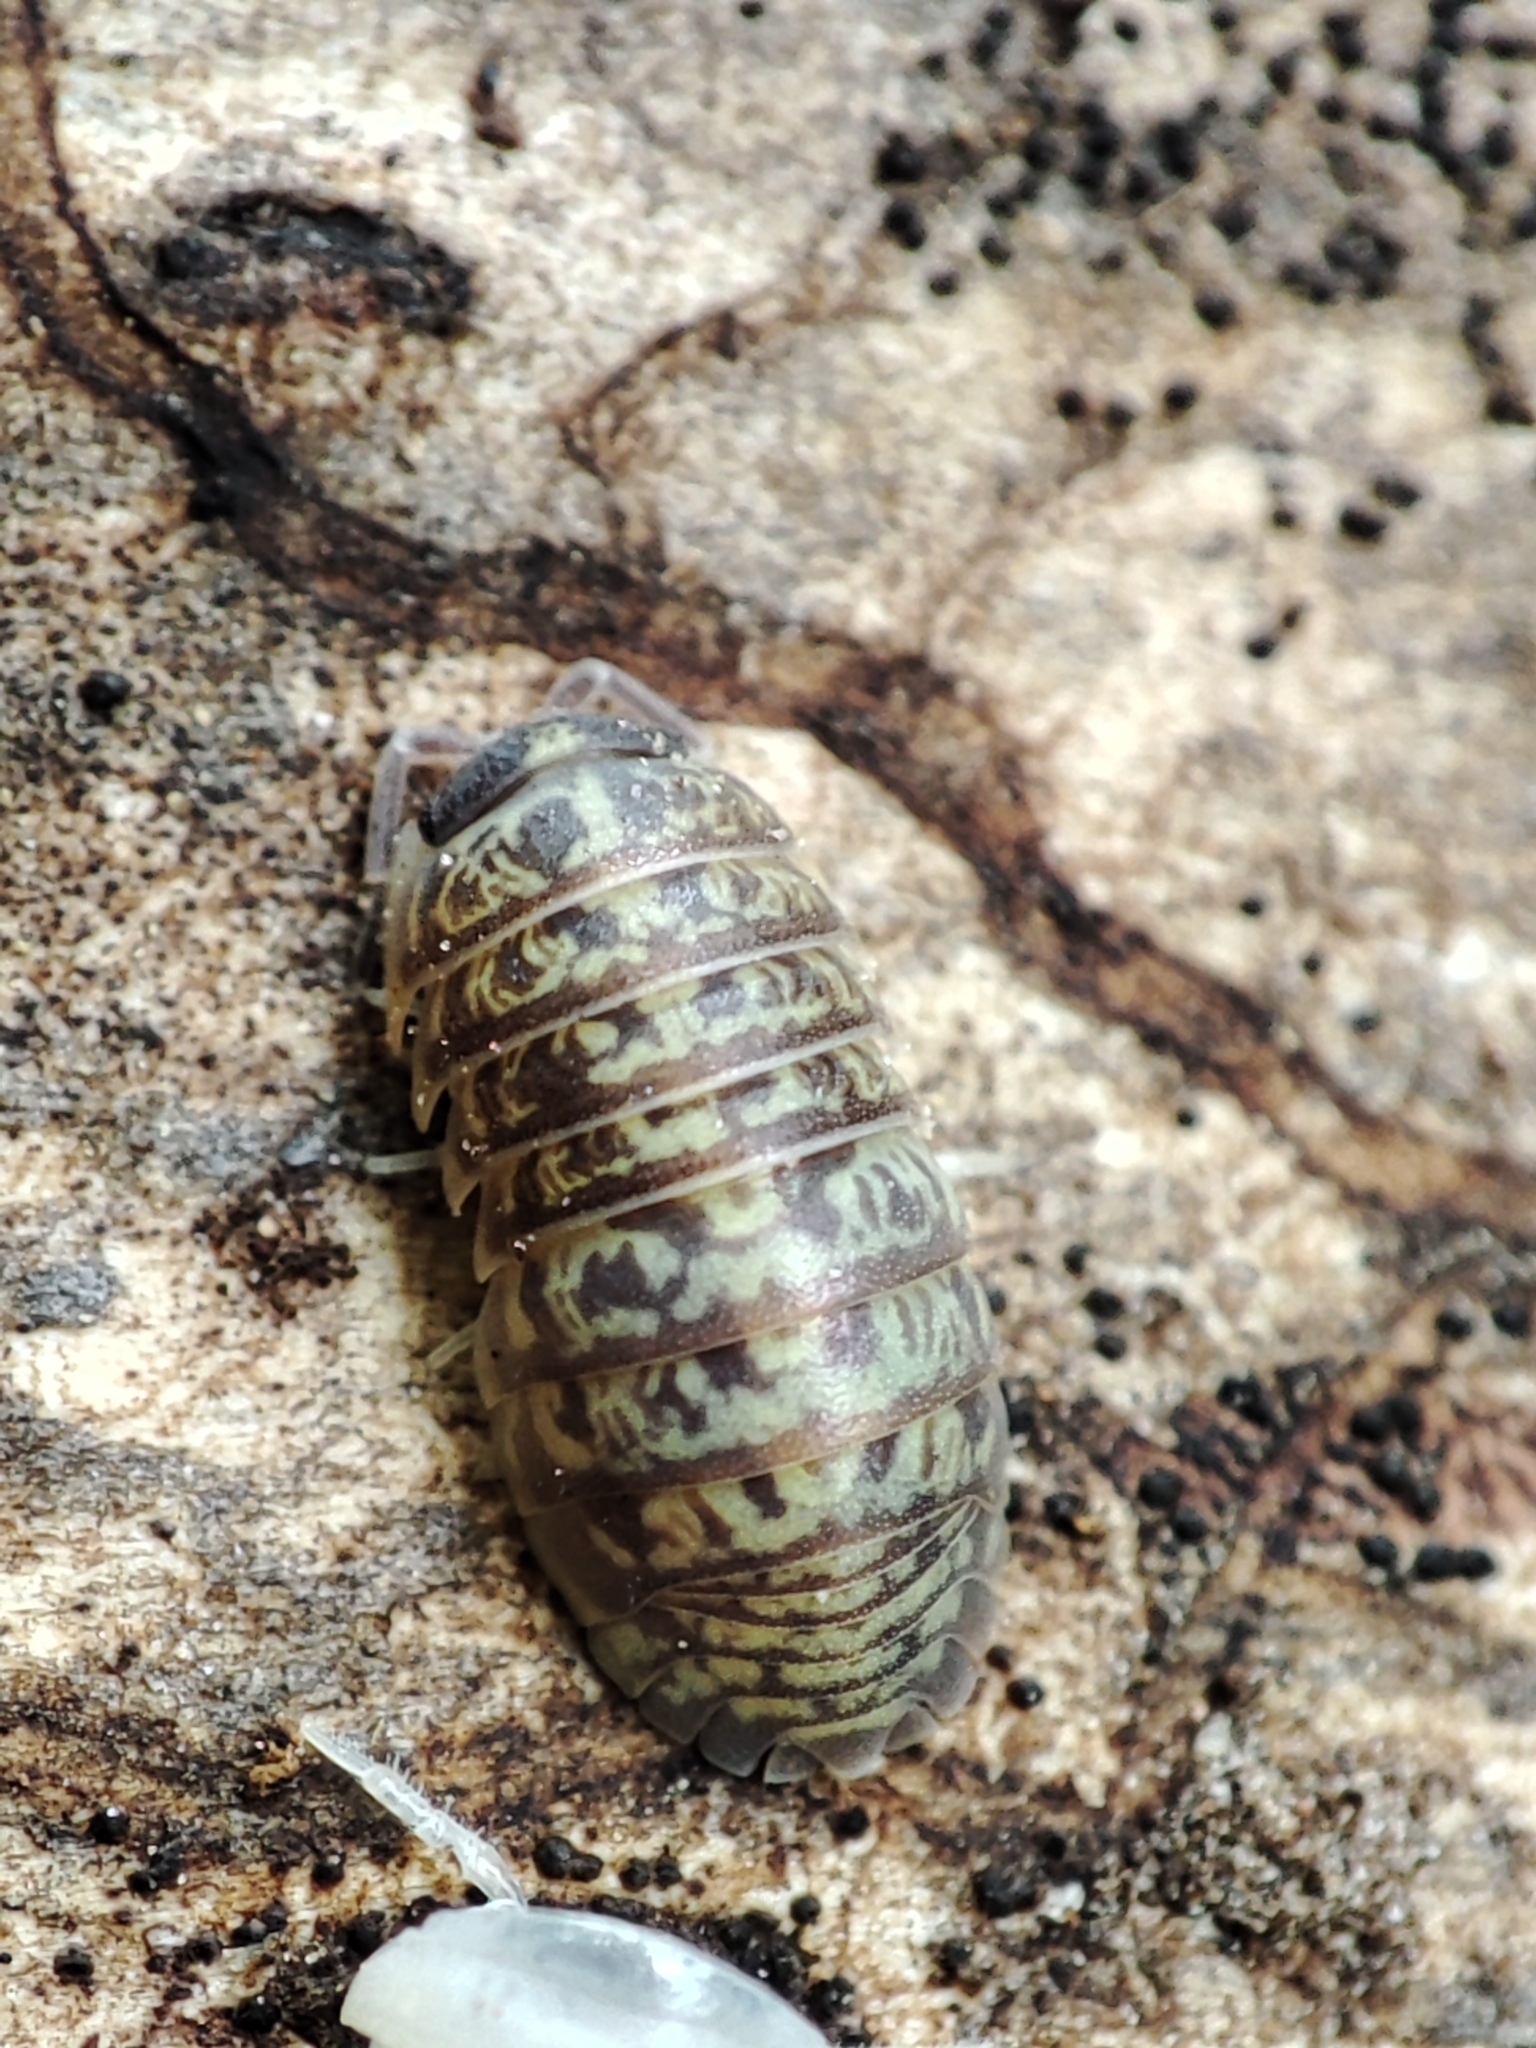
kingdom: Animalia
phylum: Arthropoda
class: Malacostraca
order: Isopoda
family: Armadillidiidae
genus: Armadillidium
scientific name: Armadillidium versicolor
